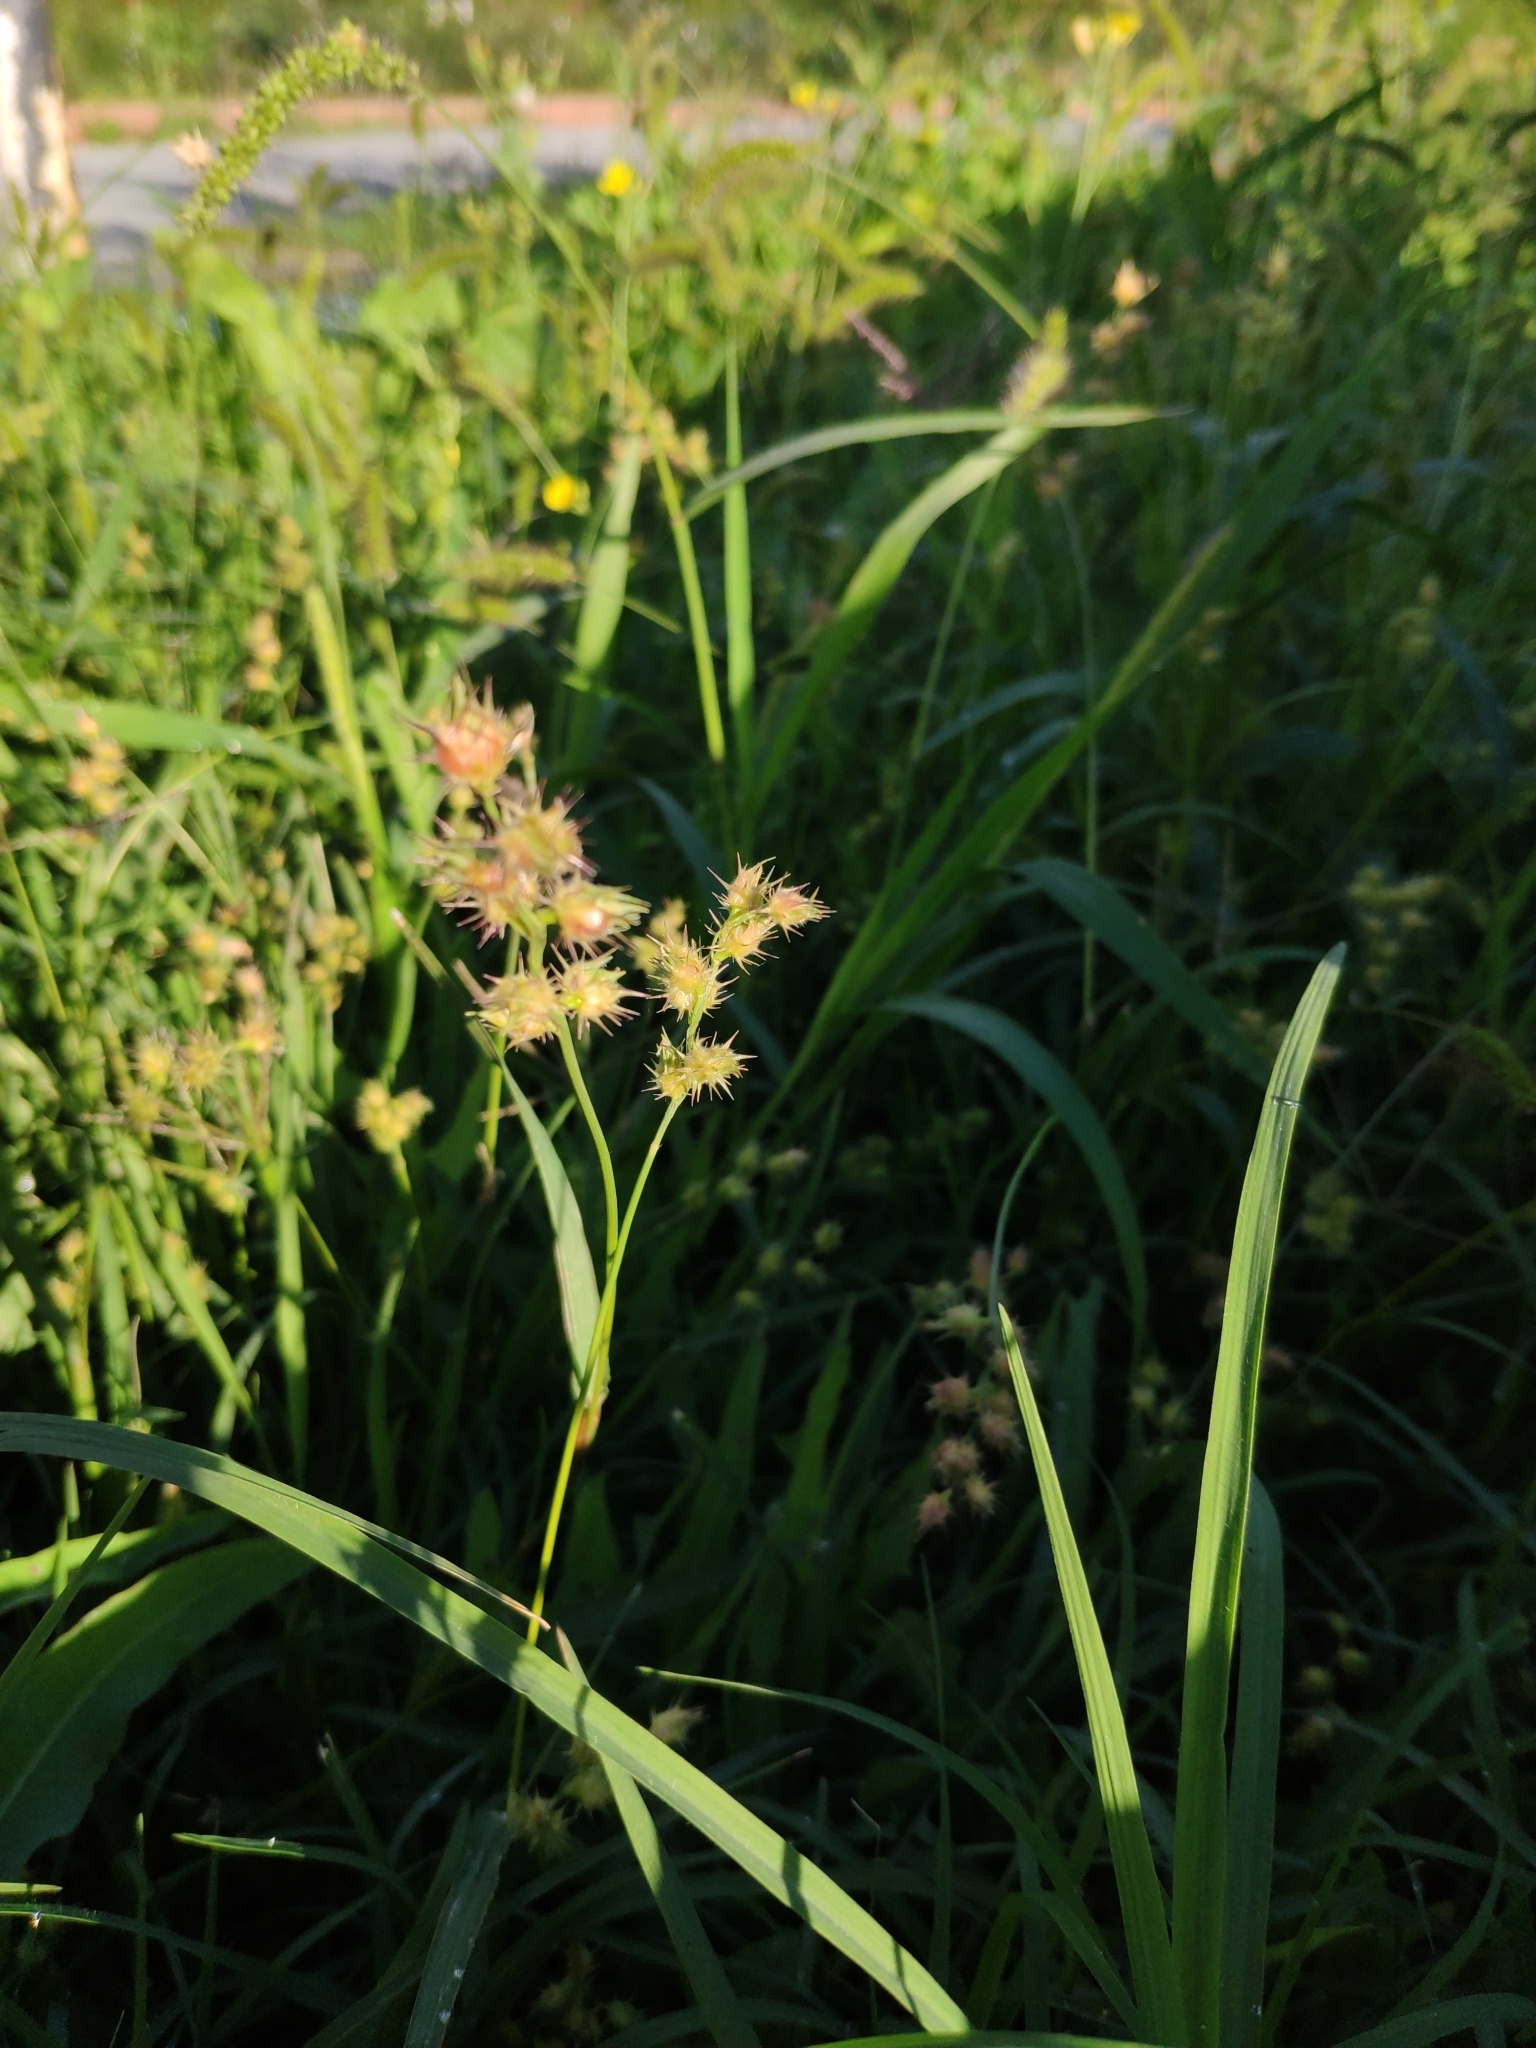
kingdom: Plantae
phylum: Tracheophyta
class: Liliopsida
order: Poales
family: Poaceae
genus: Cenchrus
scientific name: Cenchrus longispinus
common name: Mat sandbur
